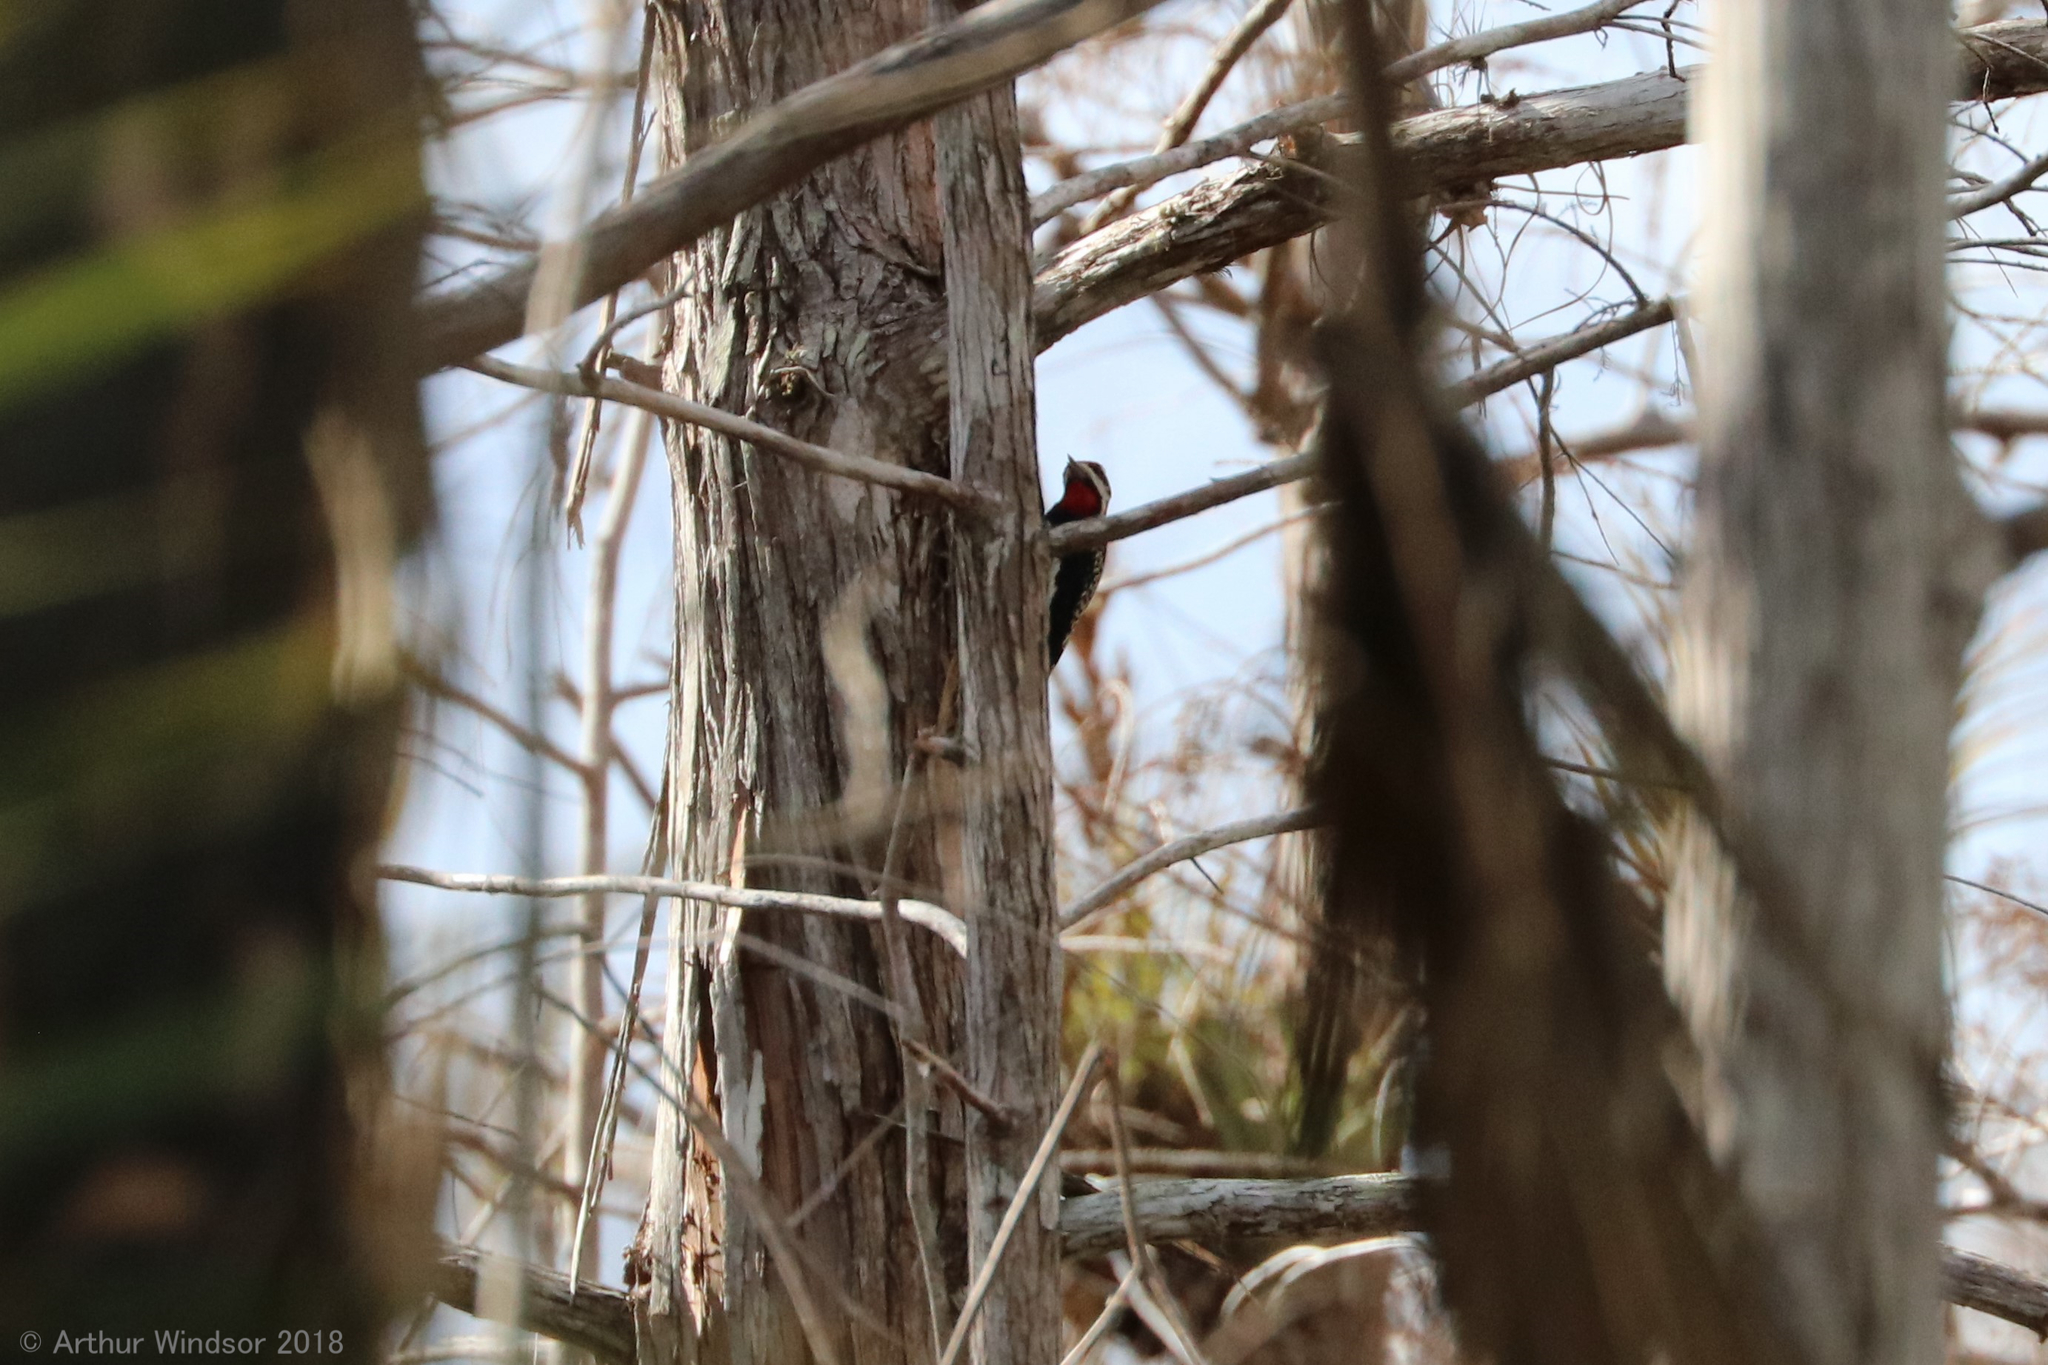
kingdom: Animalia
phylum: Chordata
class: Aves
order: Piciformes
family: Picidae
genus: Sphyrapicus
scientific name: Sphyrapicus varius
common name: Yellow-bellied sapsucker
